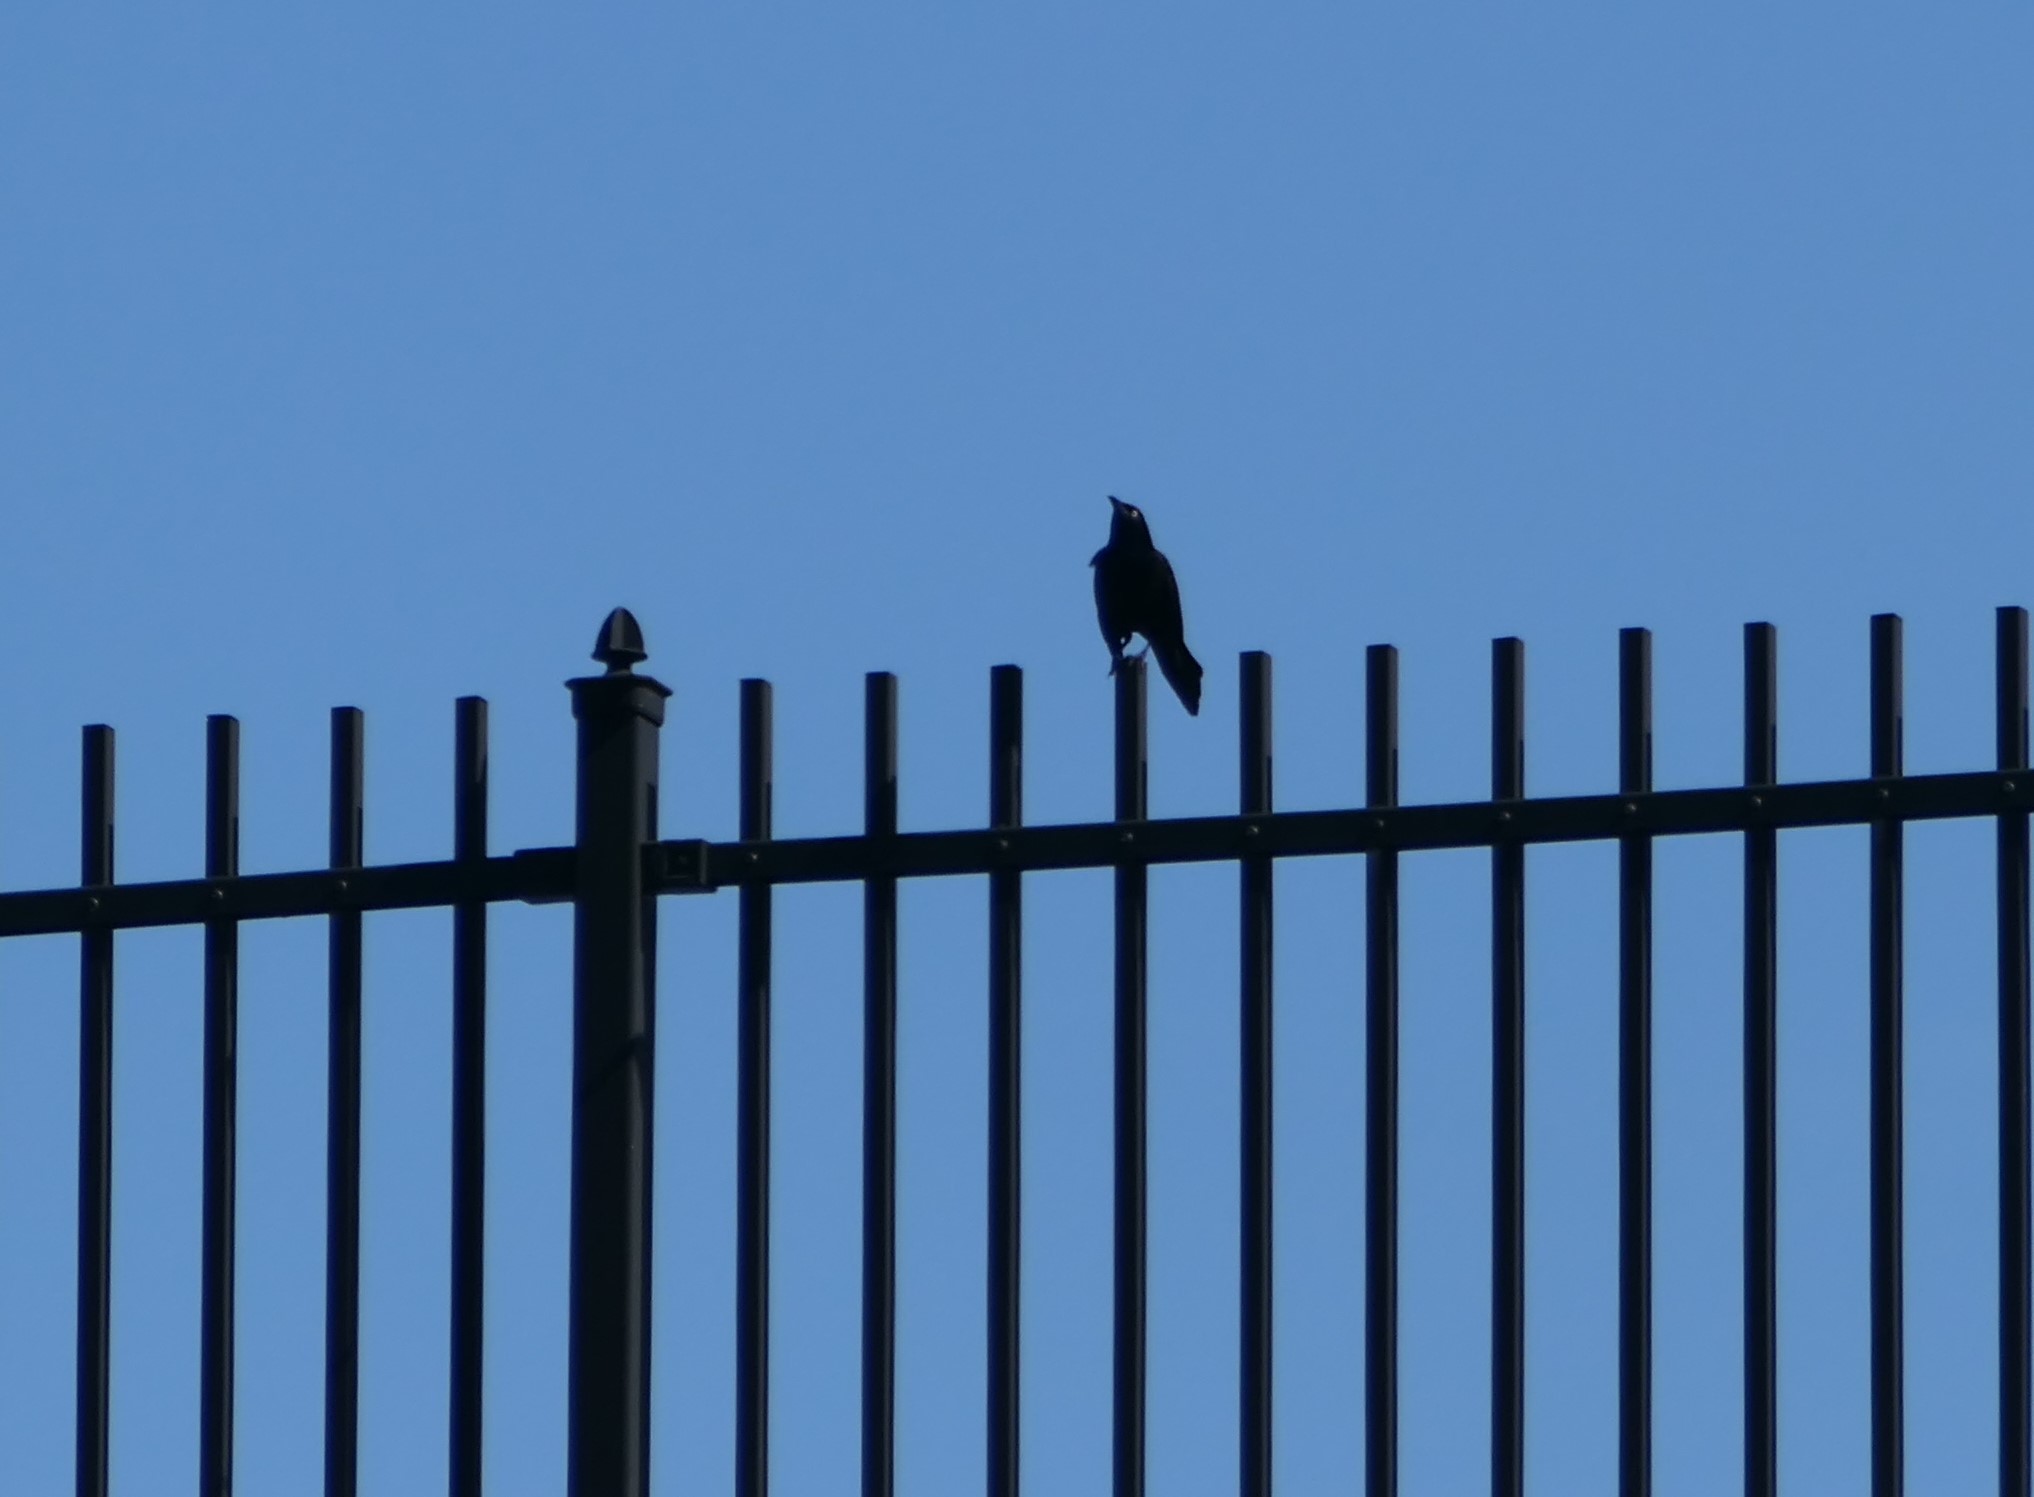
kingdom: Animalia
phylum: Chordata
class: Aves
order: Passeriformes
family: Icteridae
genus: Quiscalus
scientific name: Quiscalus quiscula
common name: Common grackle
